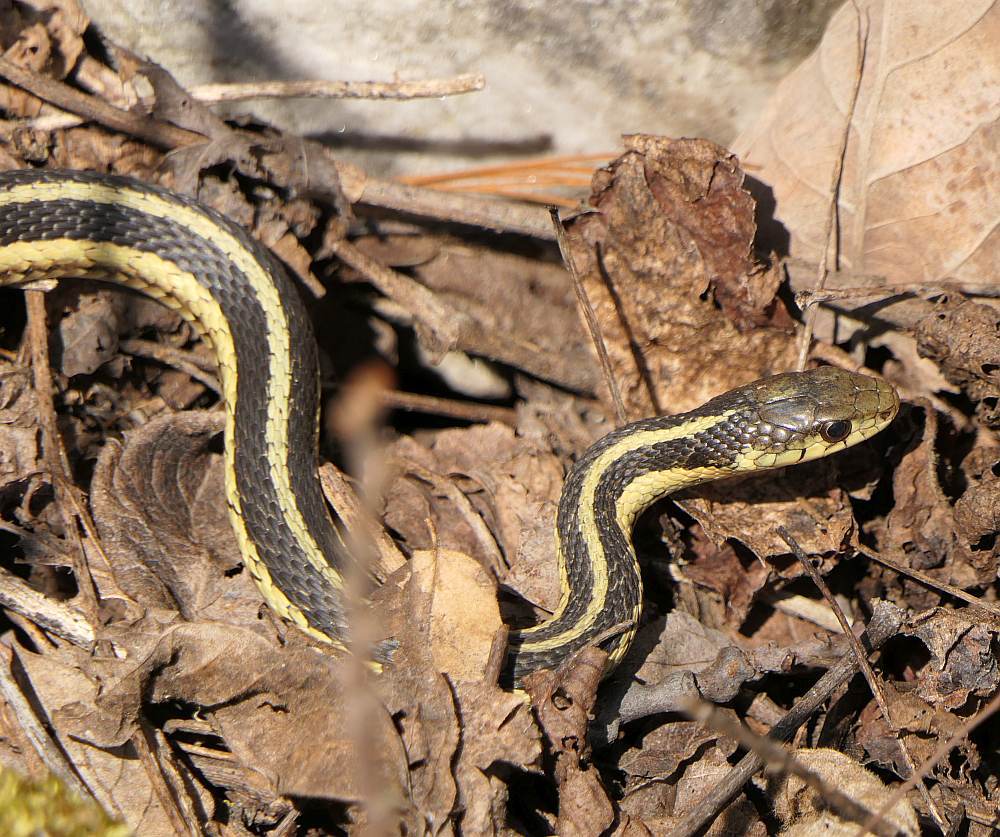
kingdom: Animalia
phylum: Chordata
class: Squamata
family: Colubridae
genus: Thamnophis
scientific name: Thamnophis sirtalis
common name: Common garter snake
